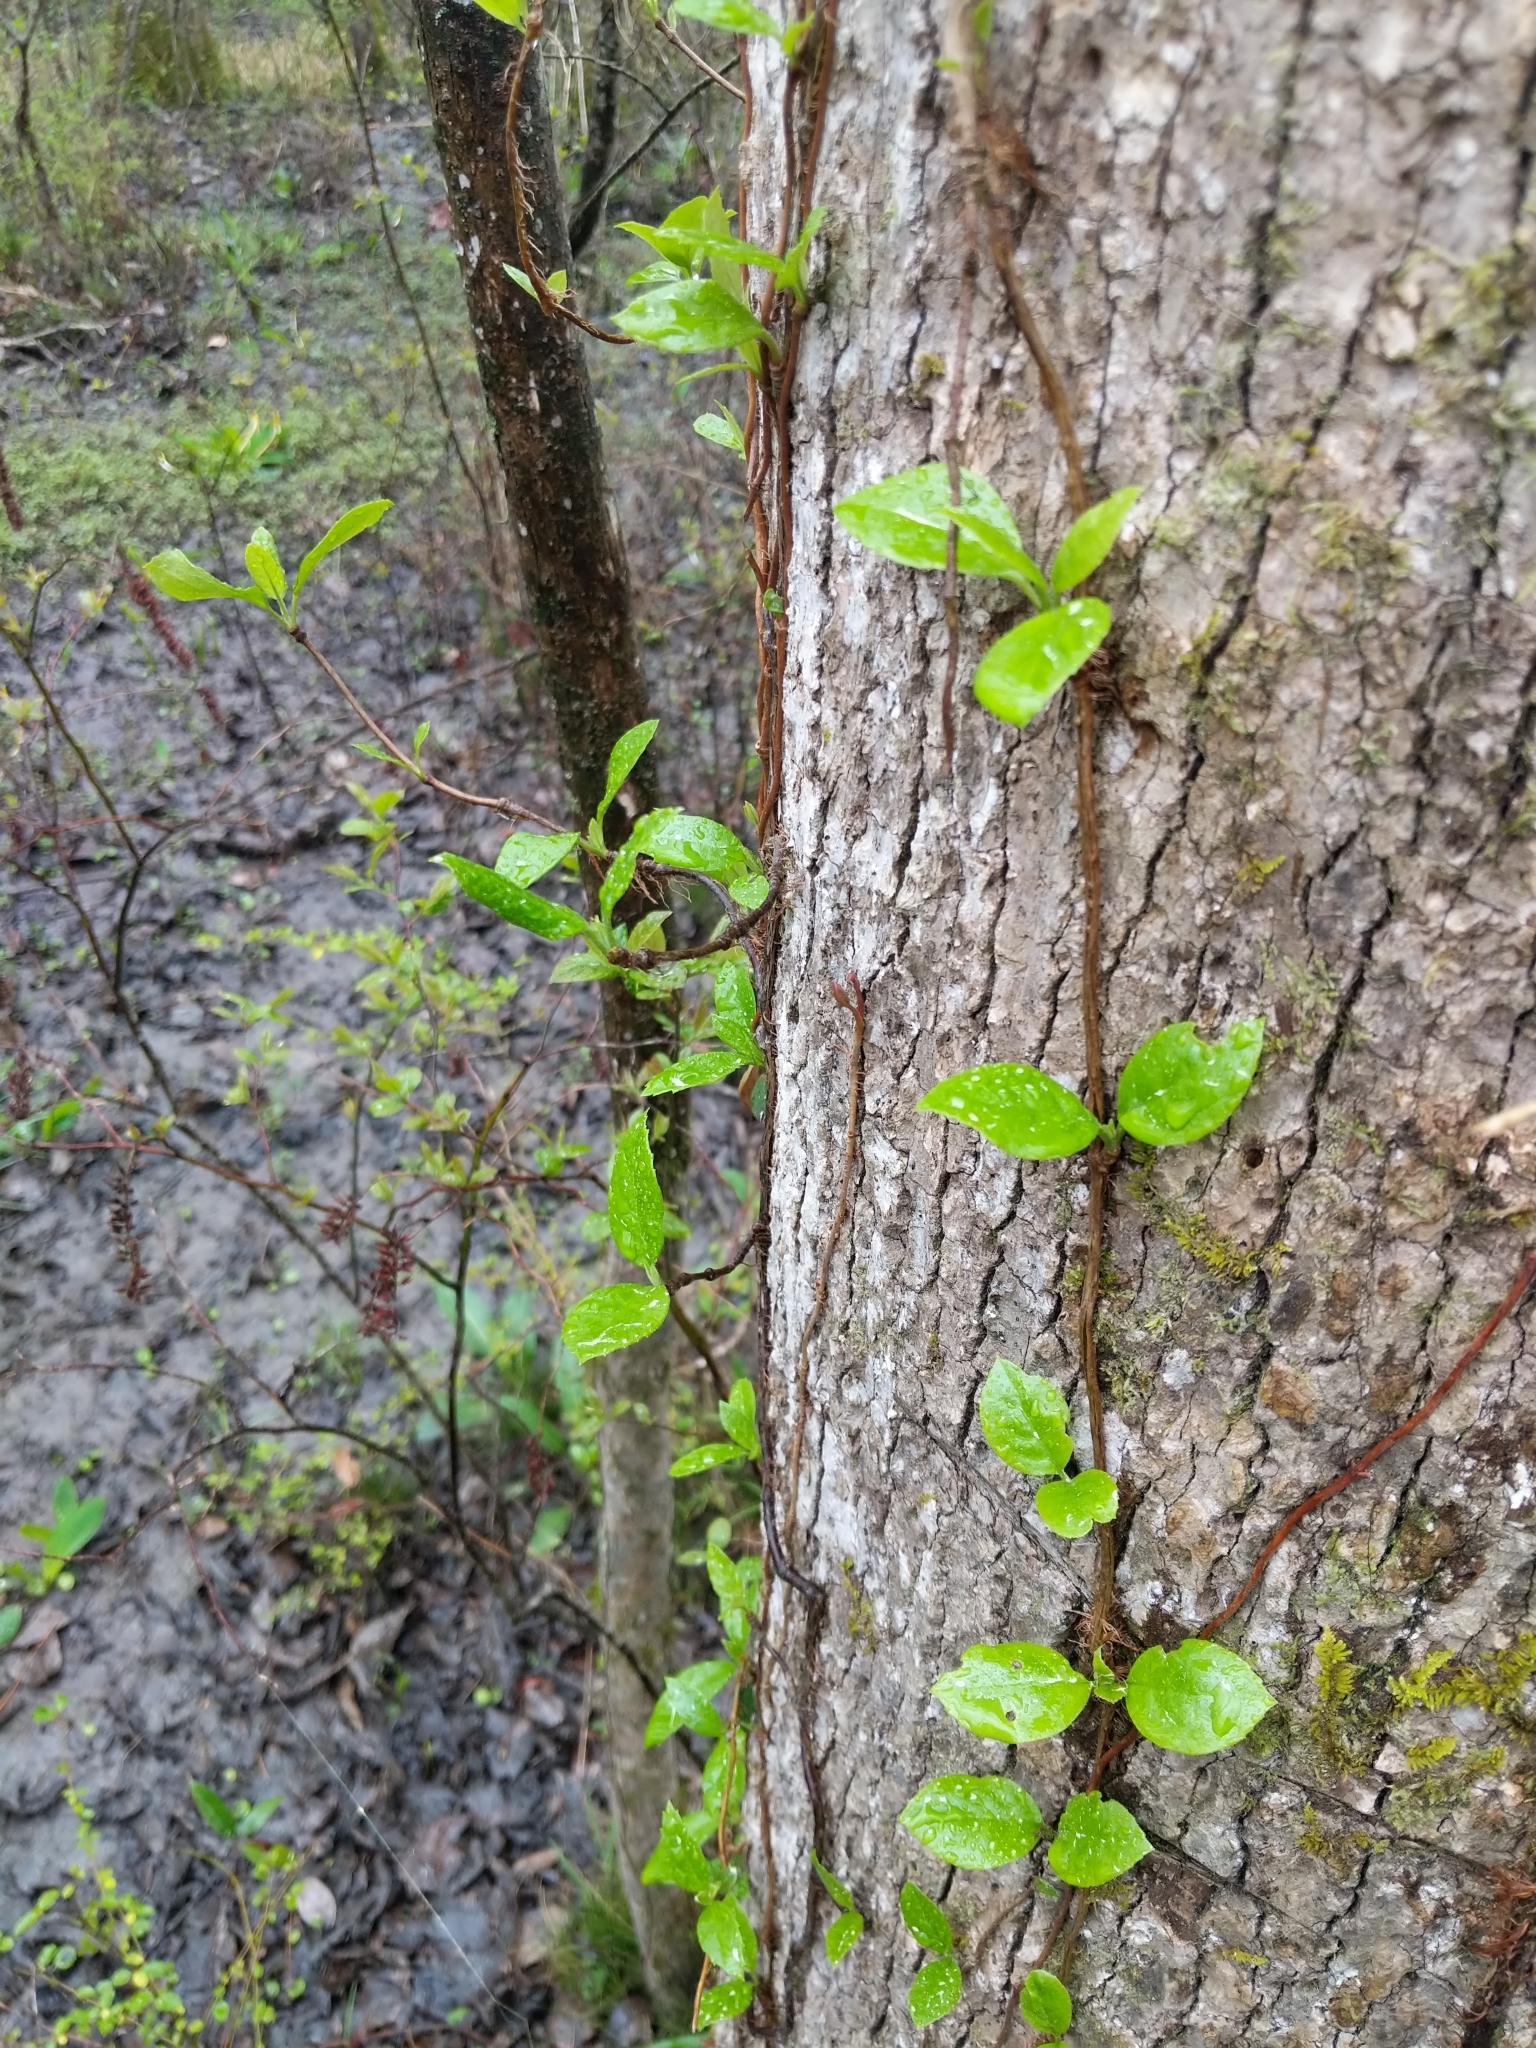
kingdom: Plantae
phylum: Tracheophyta
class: Magnoliopsida
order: Cornales
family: Hydrangeaceae
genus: Hydrangea
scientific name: Hydrangea barbara
